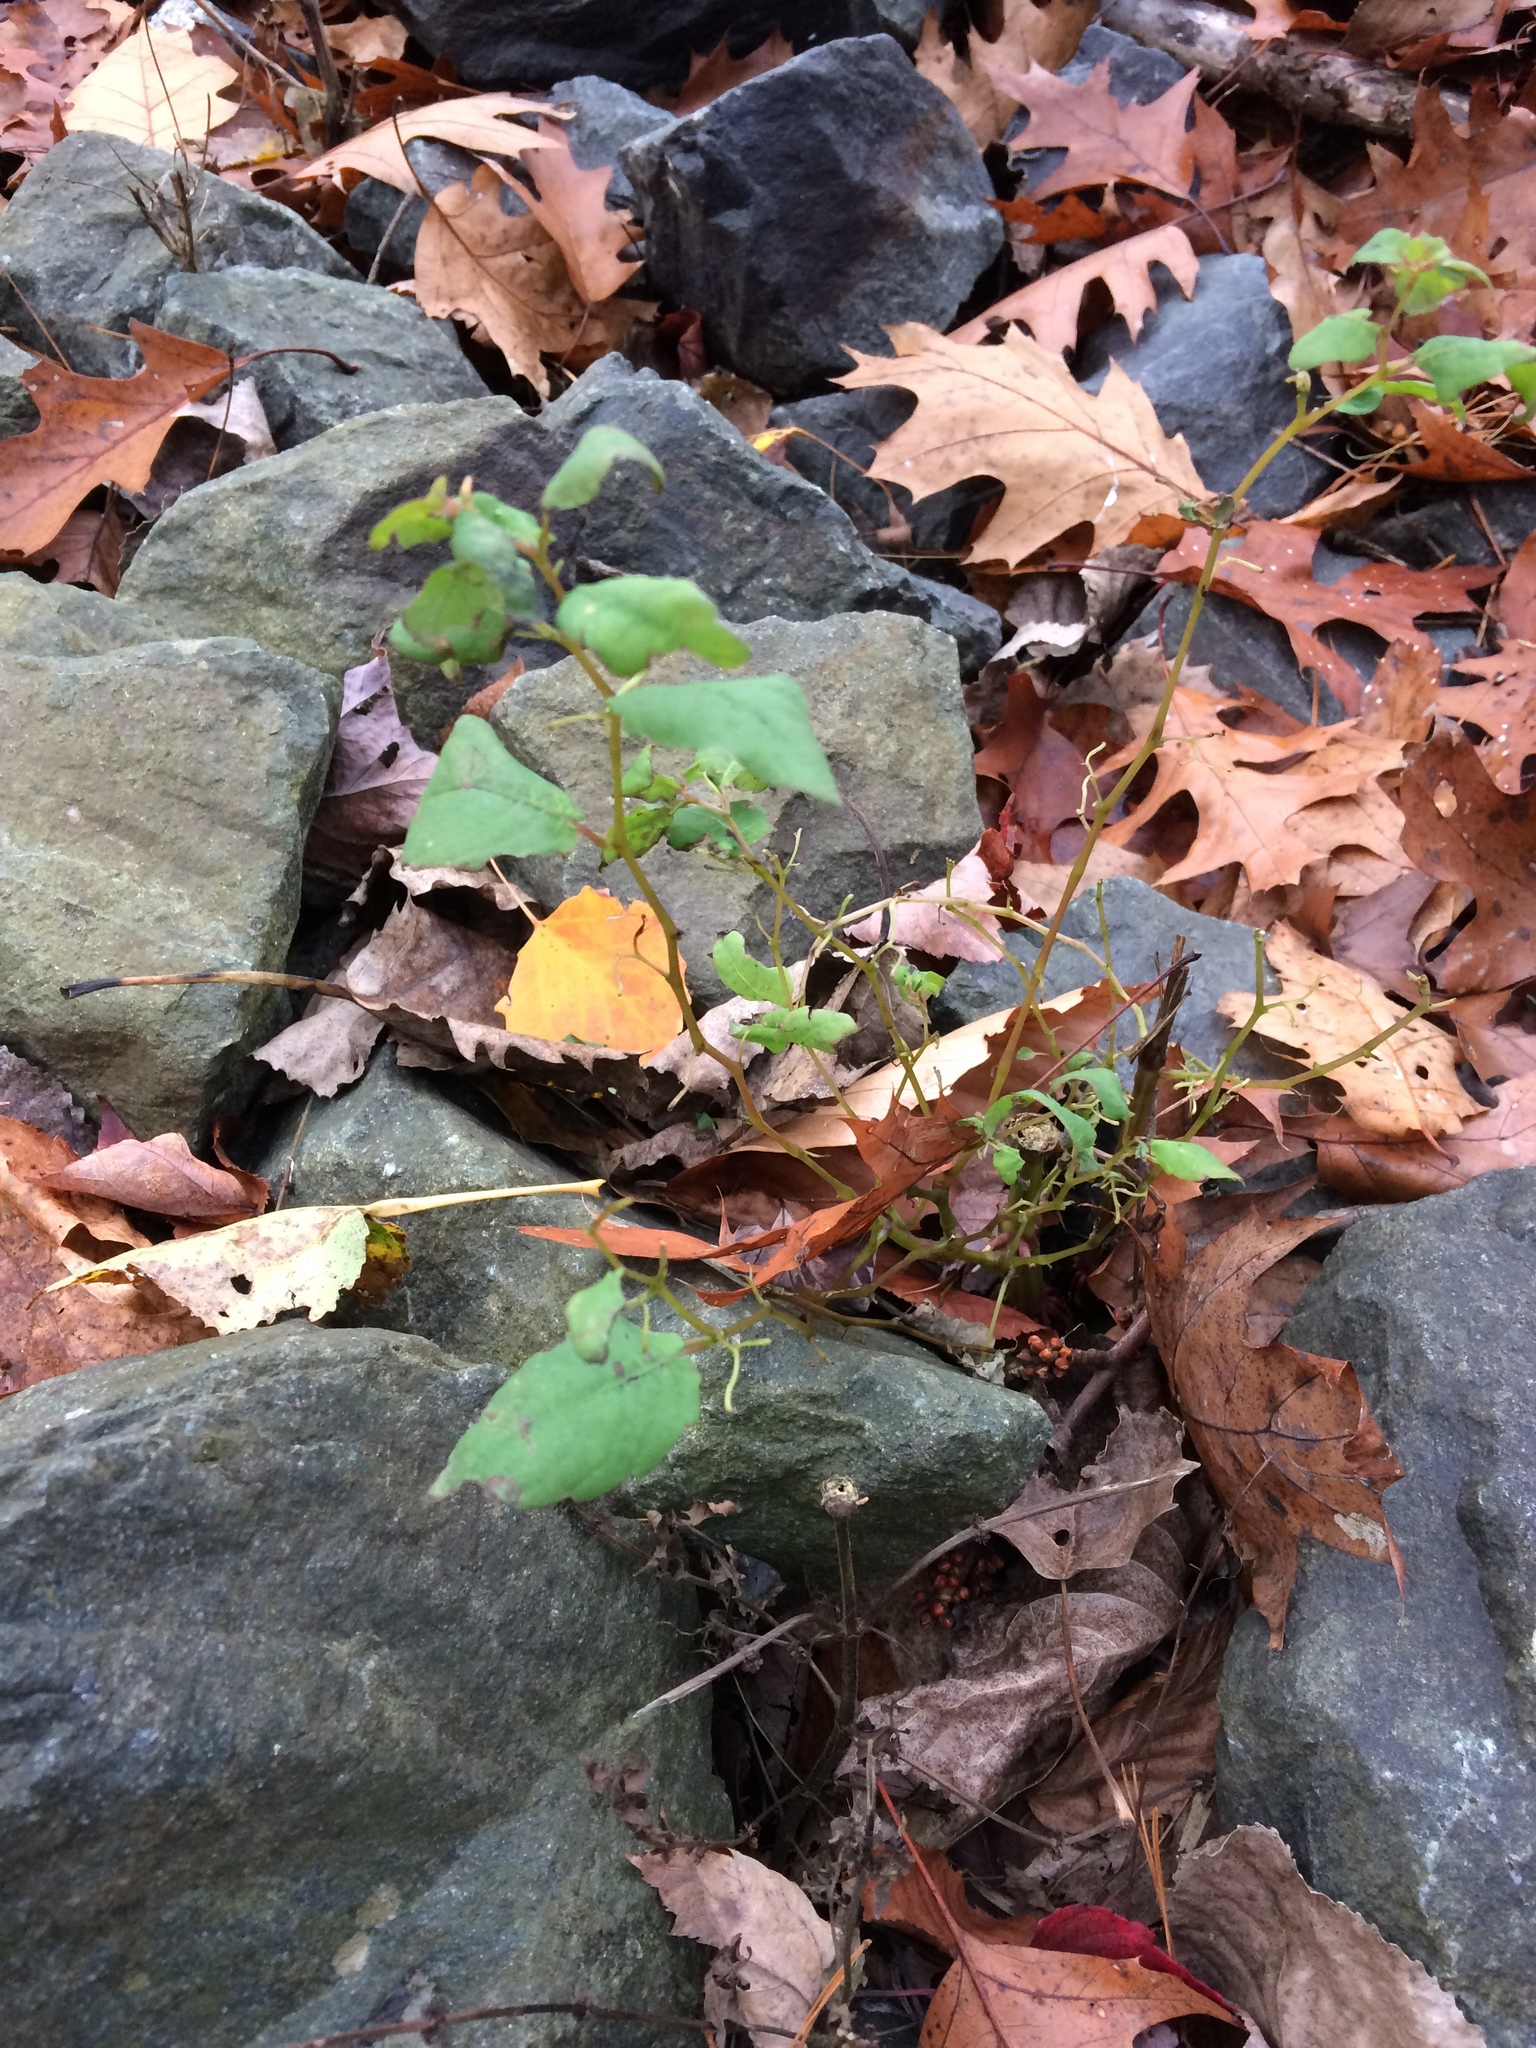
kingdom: Plantae
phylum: Tracheophyta
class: Magnoliopsida
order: Ericales
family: Balsaminaceae
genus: Impatiens
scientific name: Impatiens capensis
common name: Orange balsam
